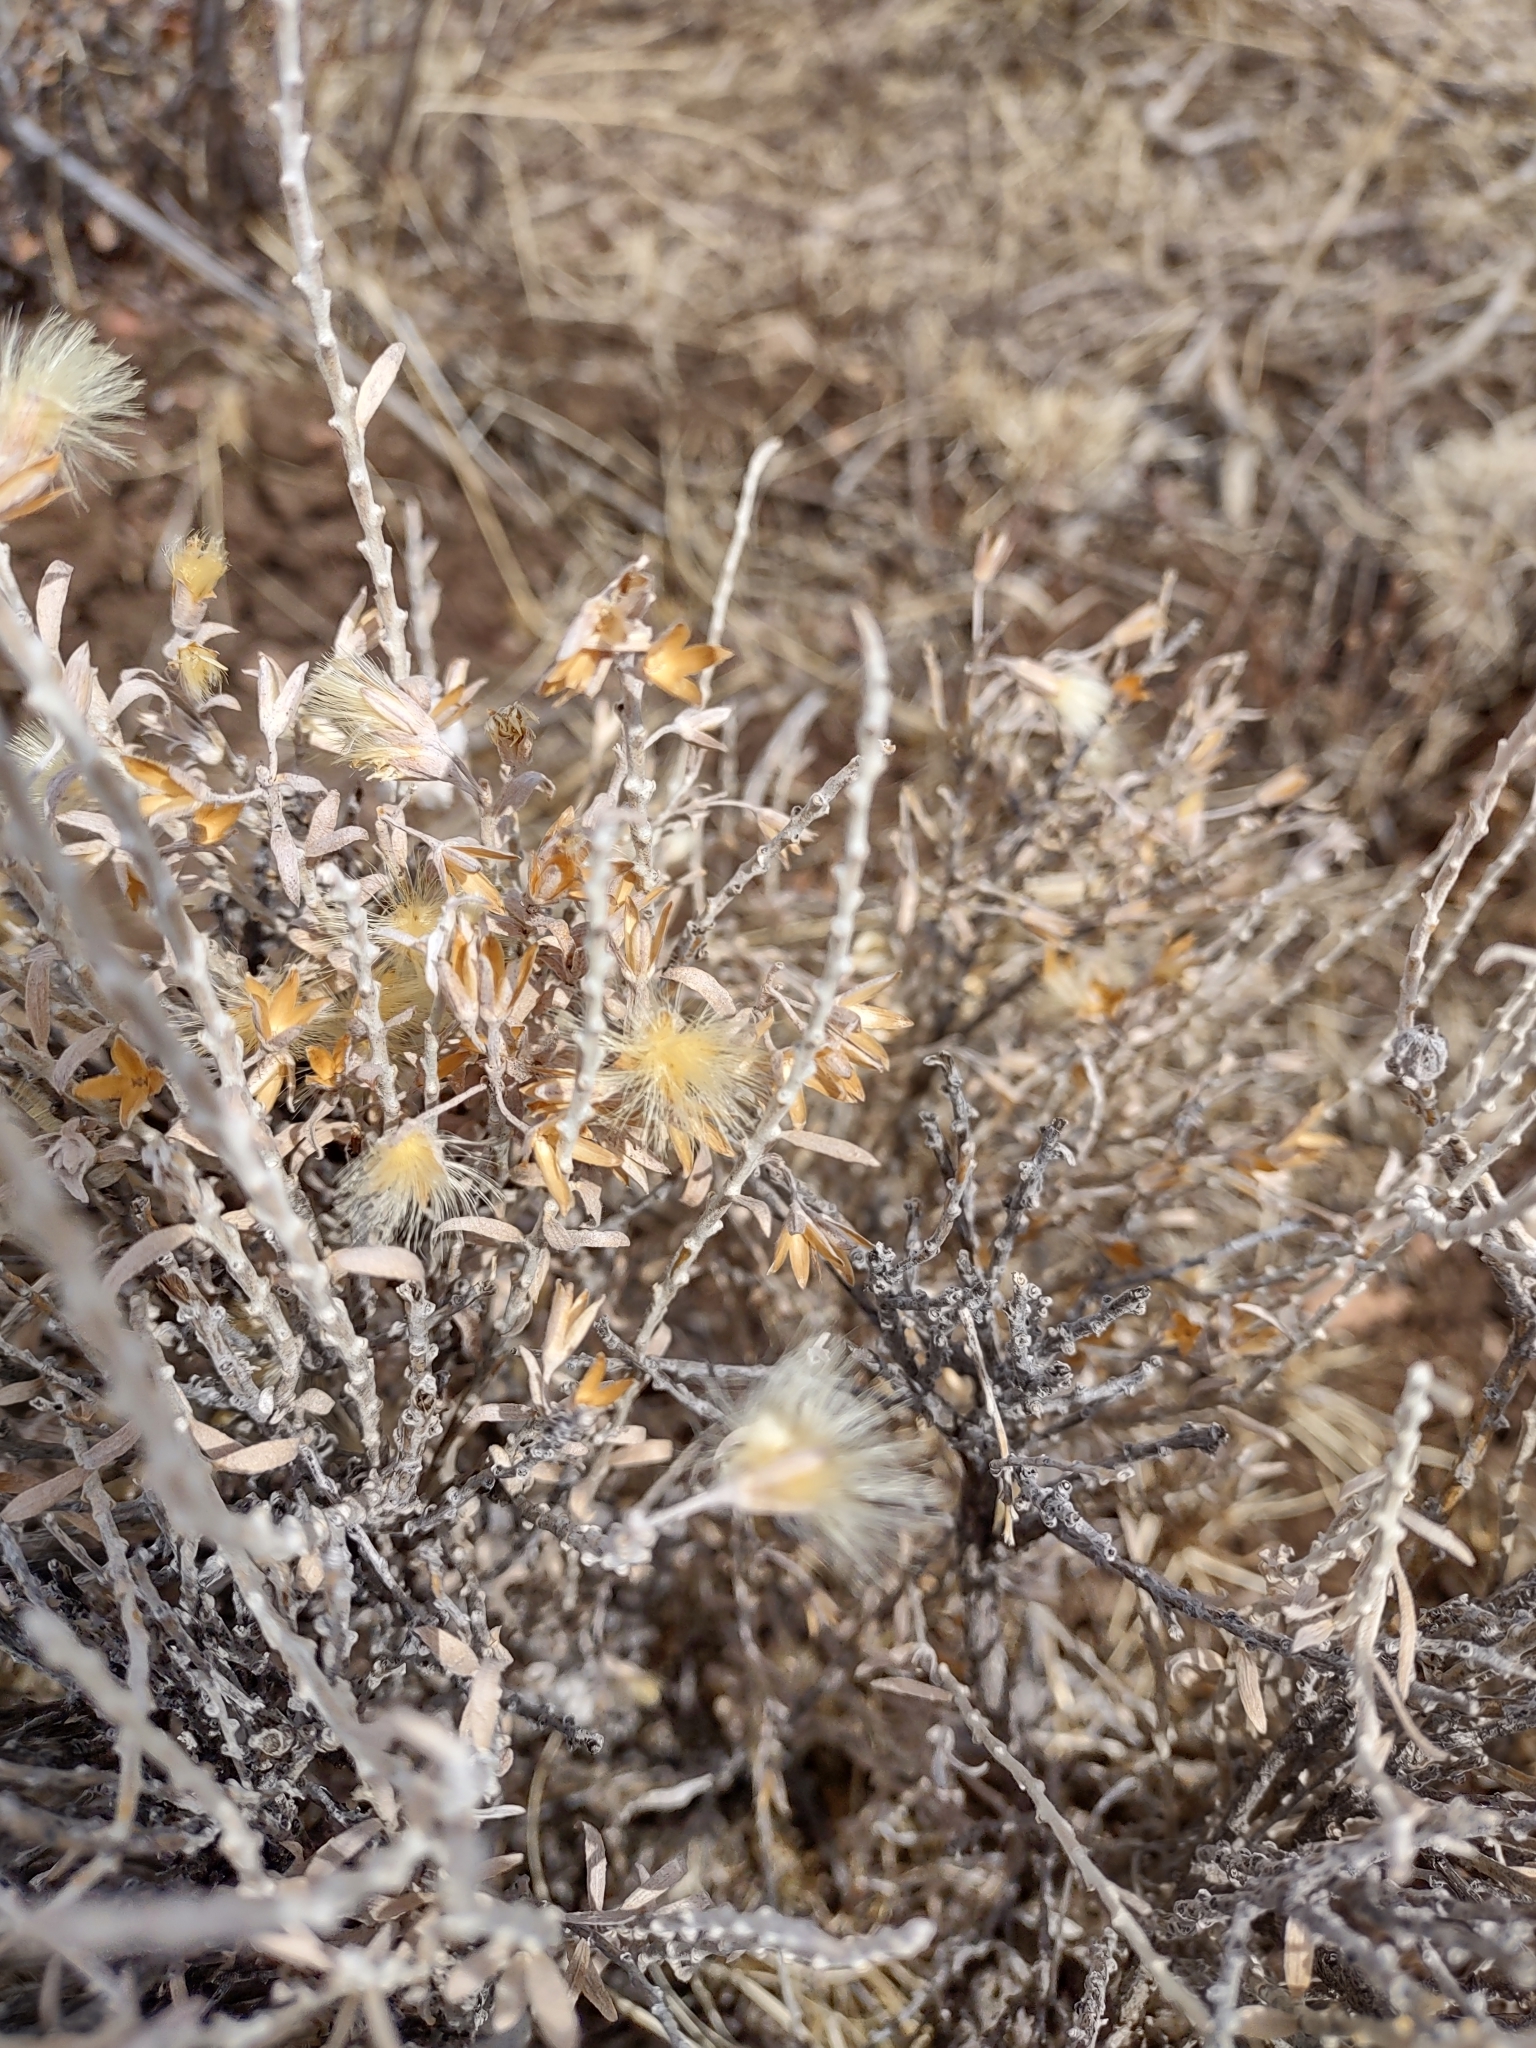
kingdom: Plantae
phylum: Tracheophyta
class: Magnoliopsida
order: Asterales
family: Asteraceae
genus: Tetradymia
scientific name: Tetradymia canescens
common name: Spineless horsebrush
